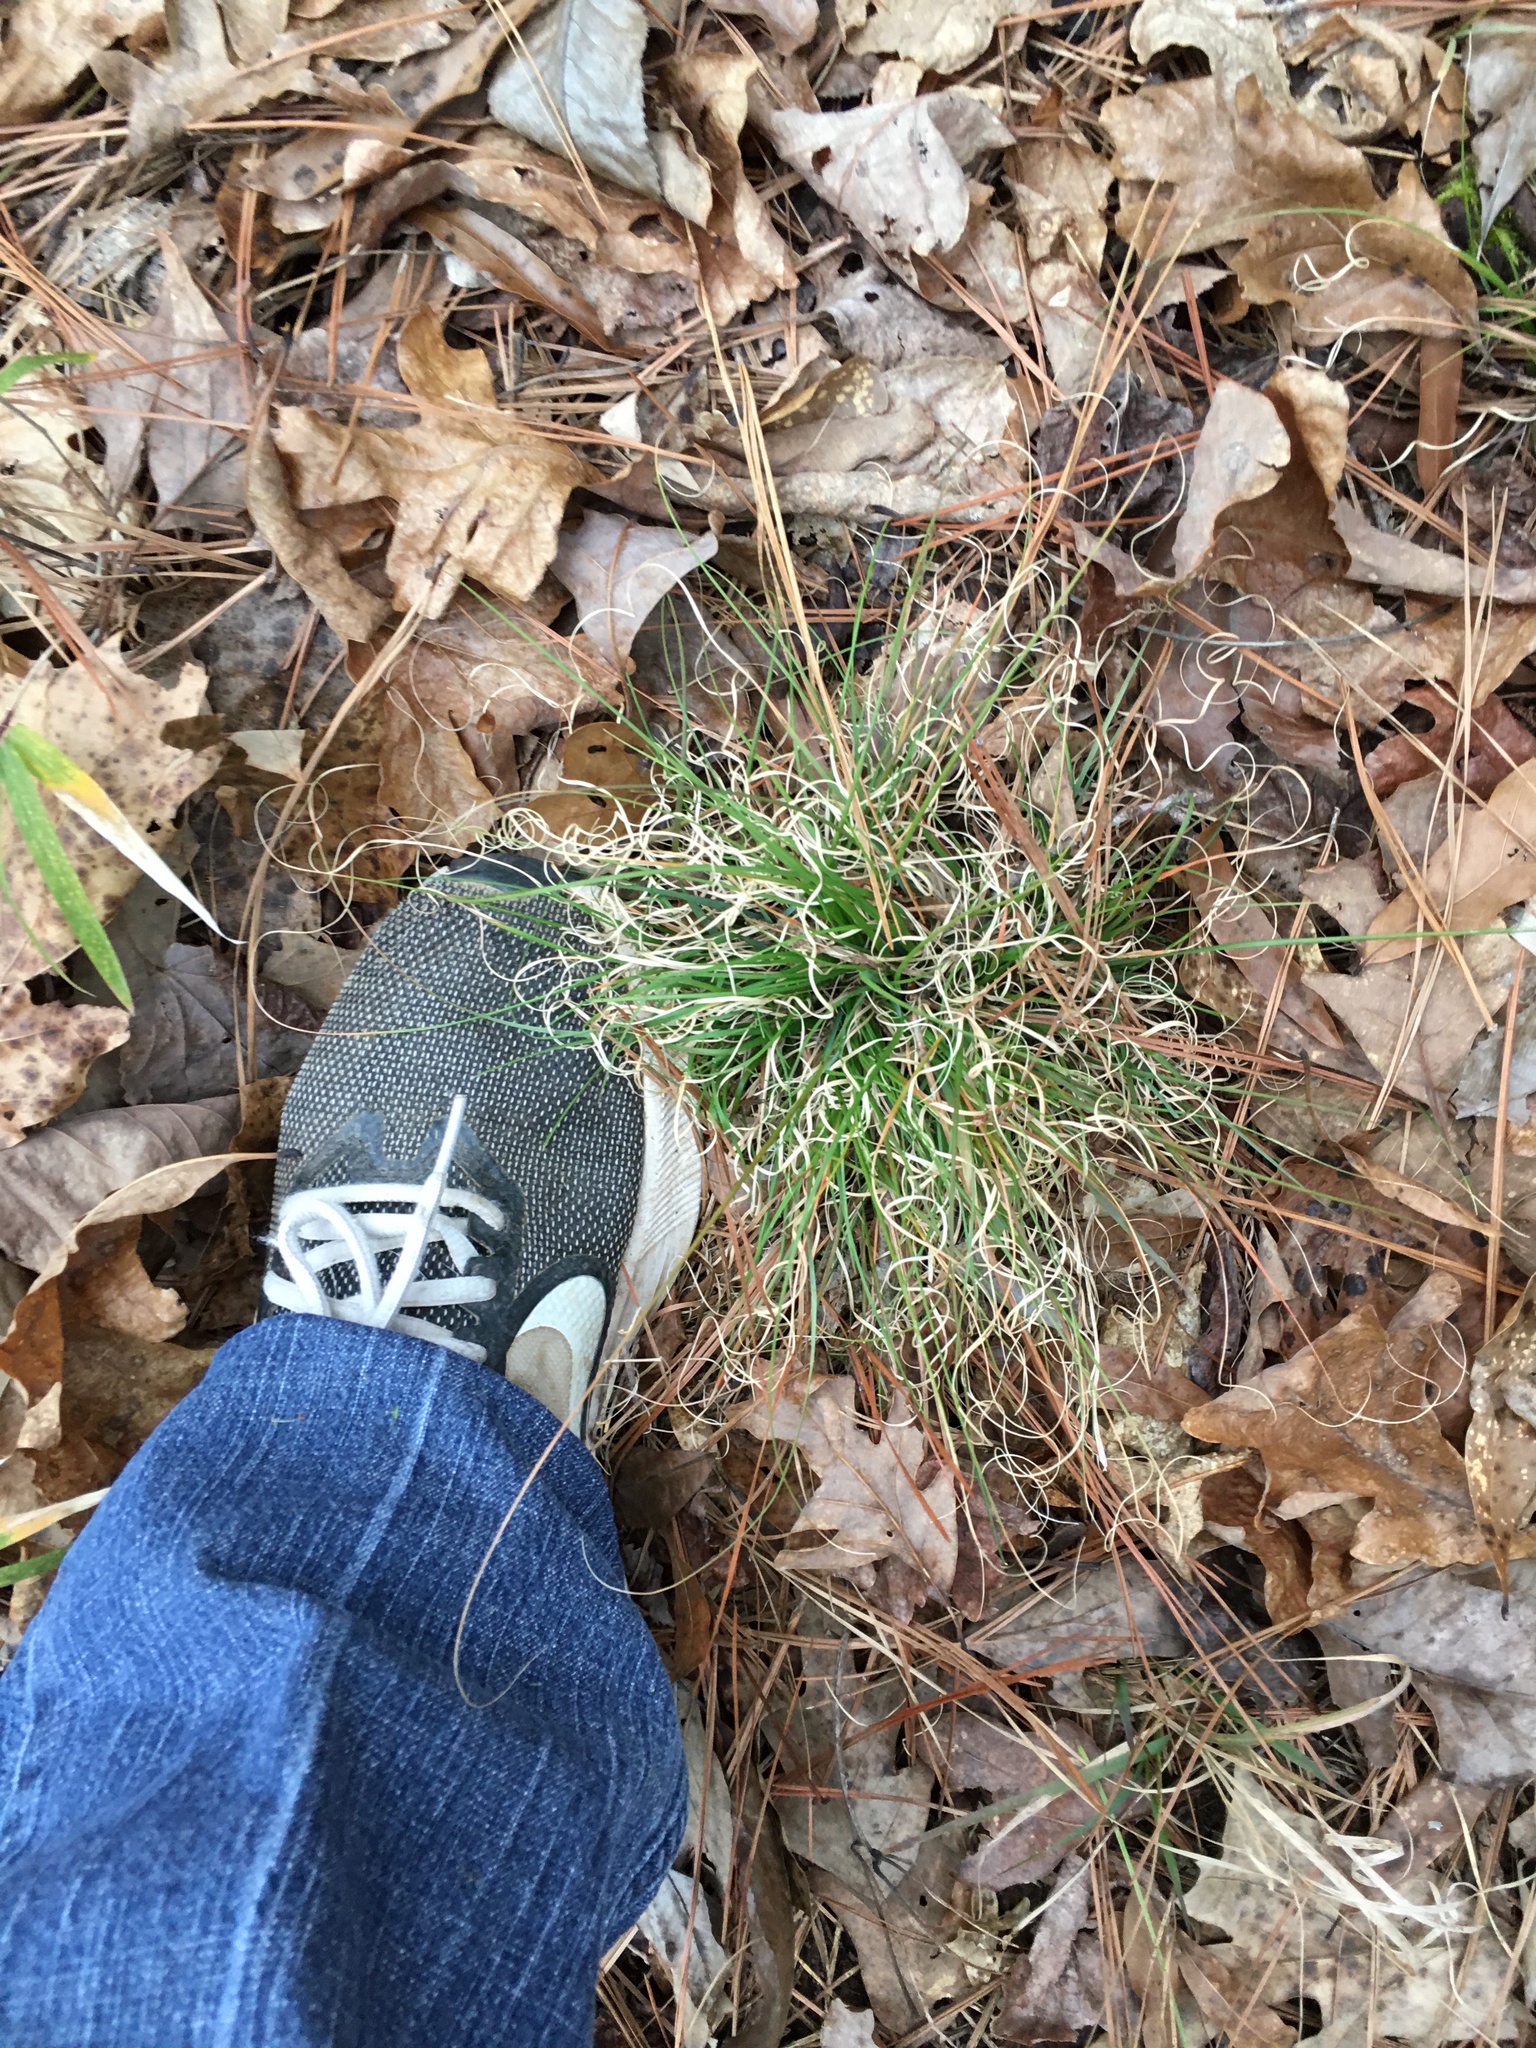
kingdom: Plantae
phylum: Tracheophyta
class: Liliopsida
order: Poales
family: Poaceae
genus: Danthonia
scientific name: Danthonia spicata
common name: Common wild oatgrass
